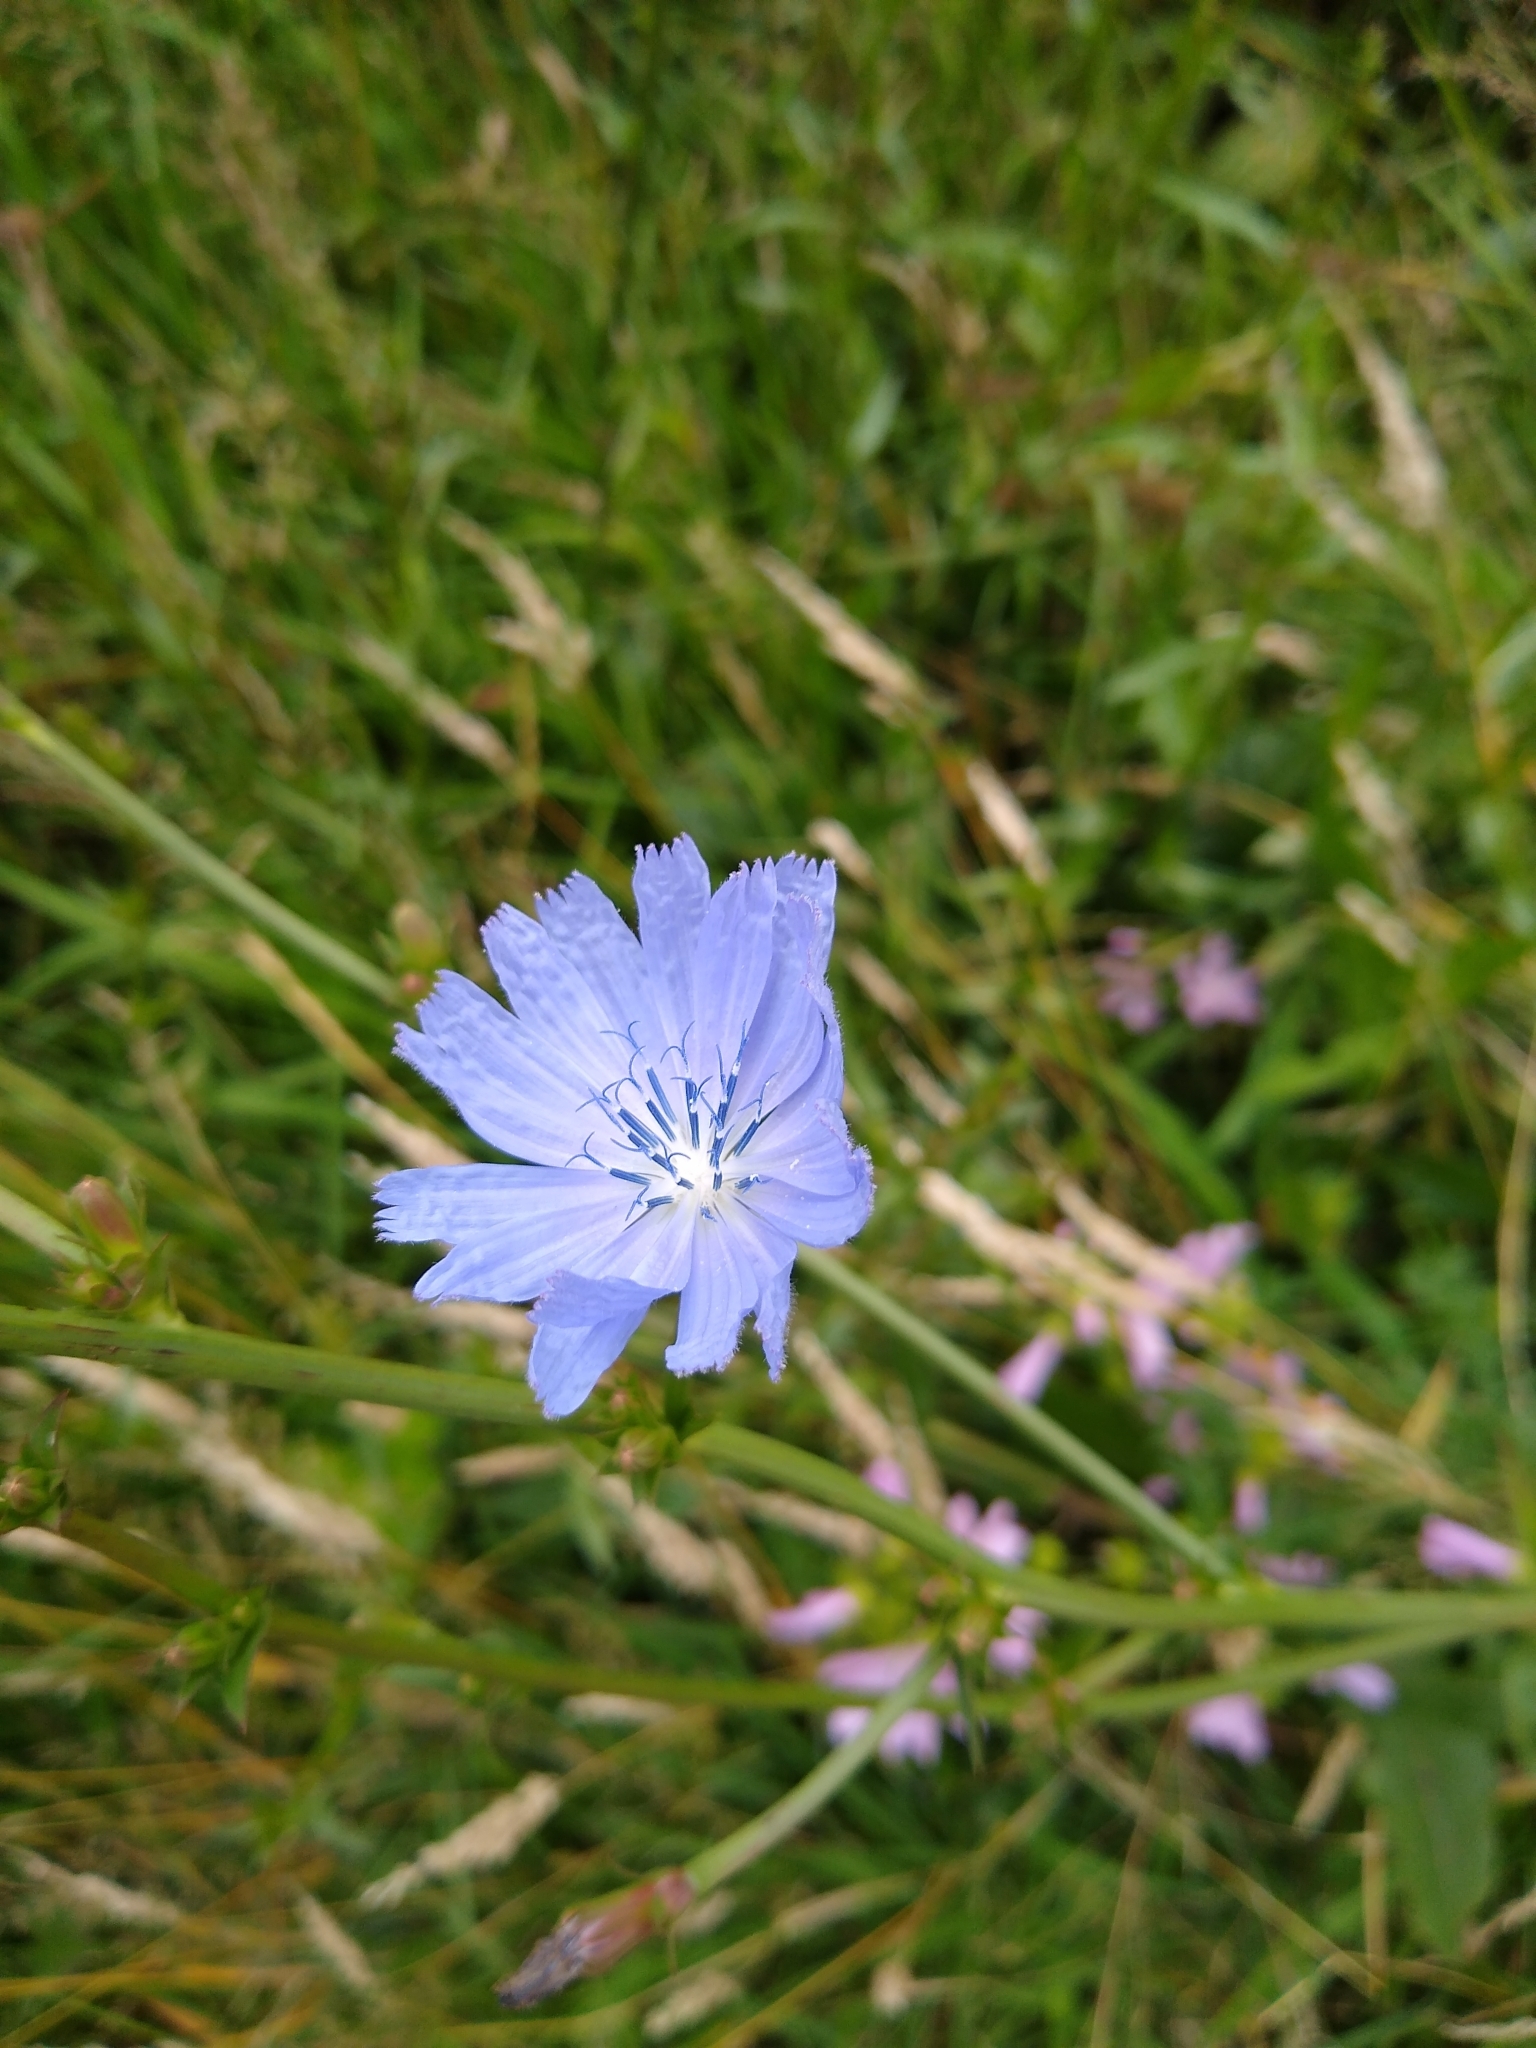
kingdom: Plantae
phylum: Tracheophyta
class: Magnoliopsida
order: Asterales
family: Asteraceae
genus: Cichorium
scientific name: Cichorium intybus
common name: Chicory
